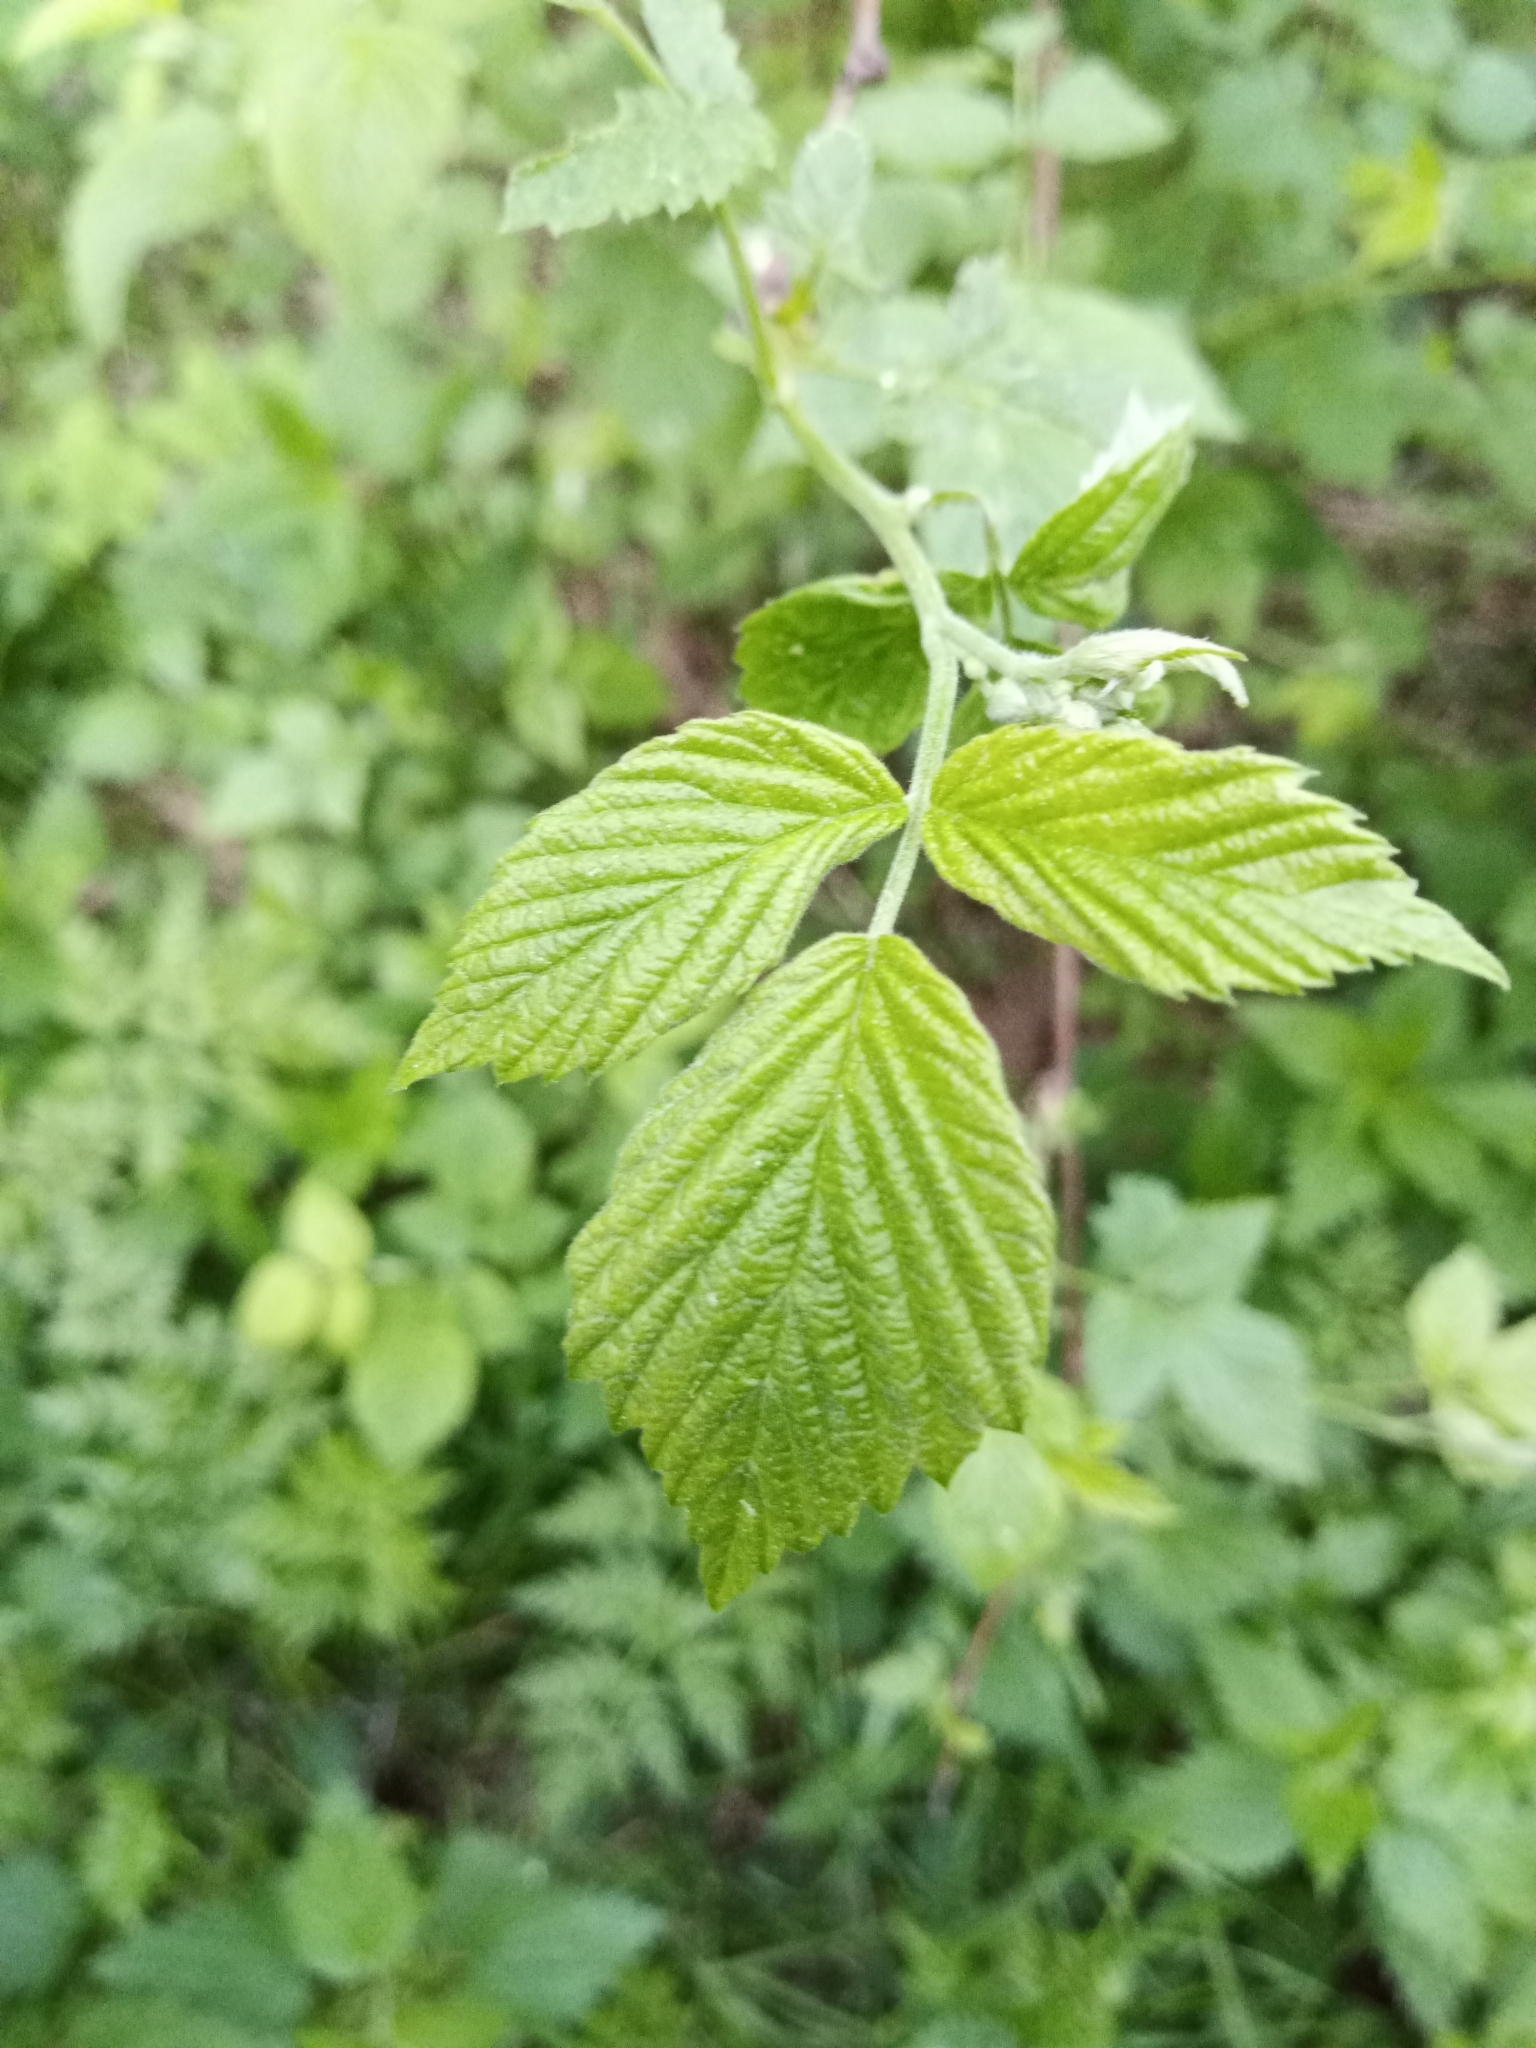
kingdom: Plantae
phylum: Tracheophyta
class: Magnoliopsida
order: Rosales
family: Rosaceae
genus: Rubus
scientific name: Rubus idaeus
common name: Raspberry
